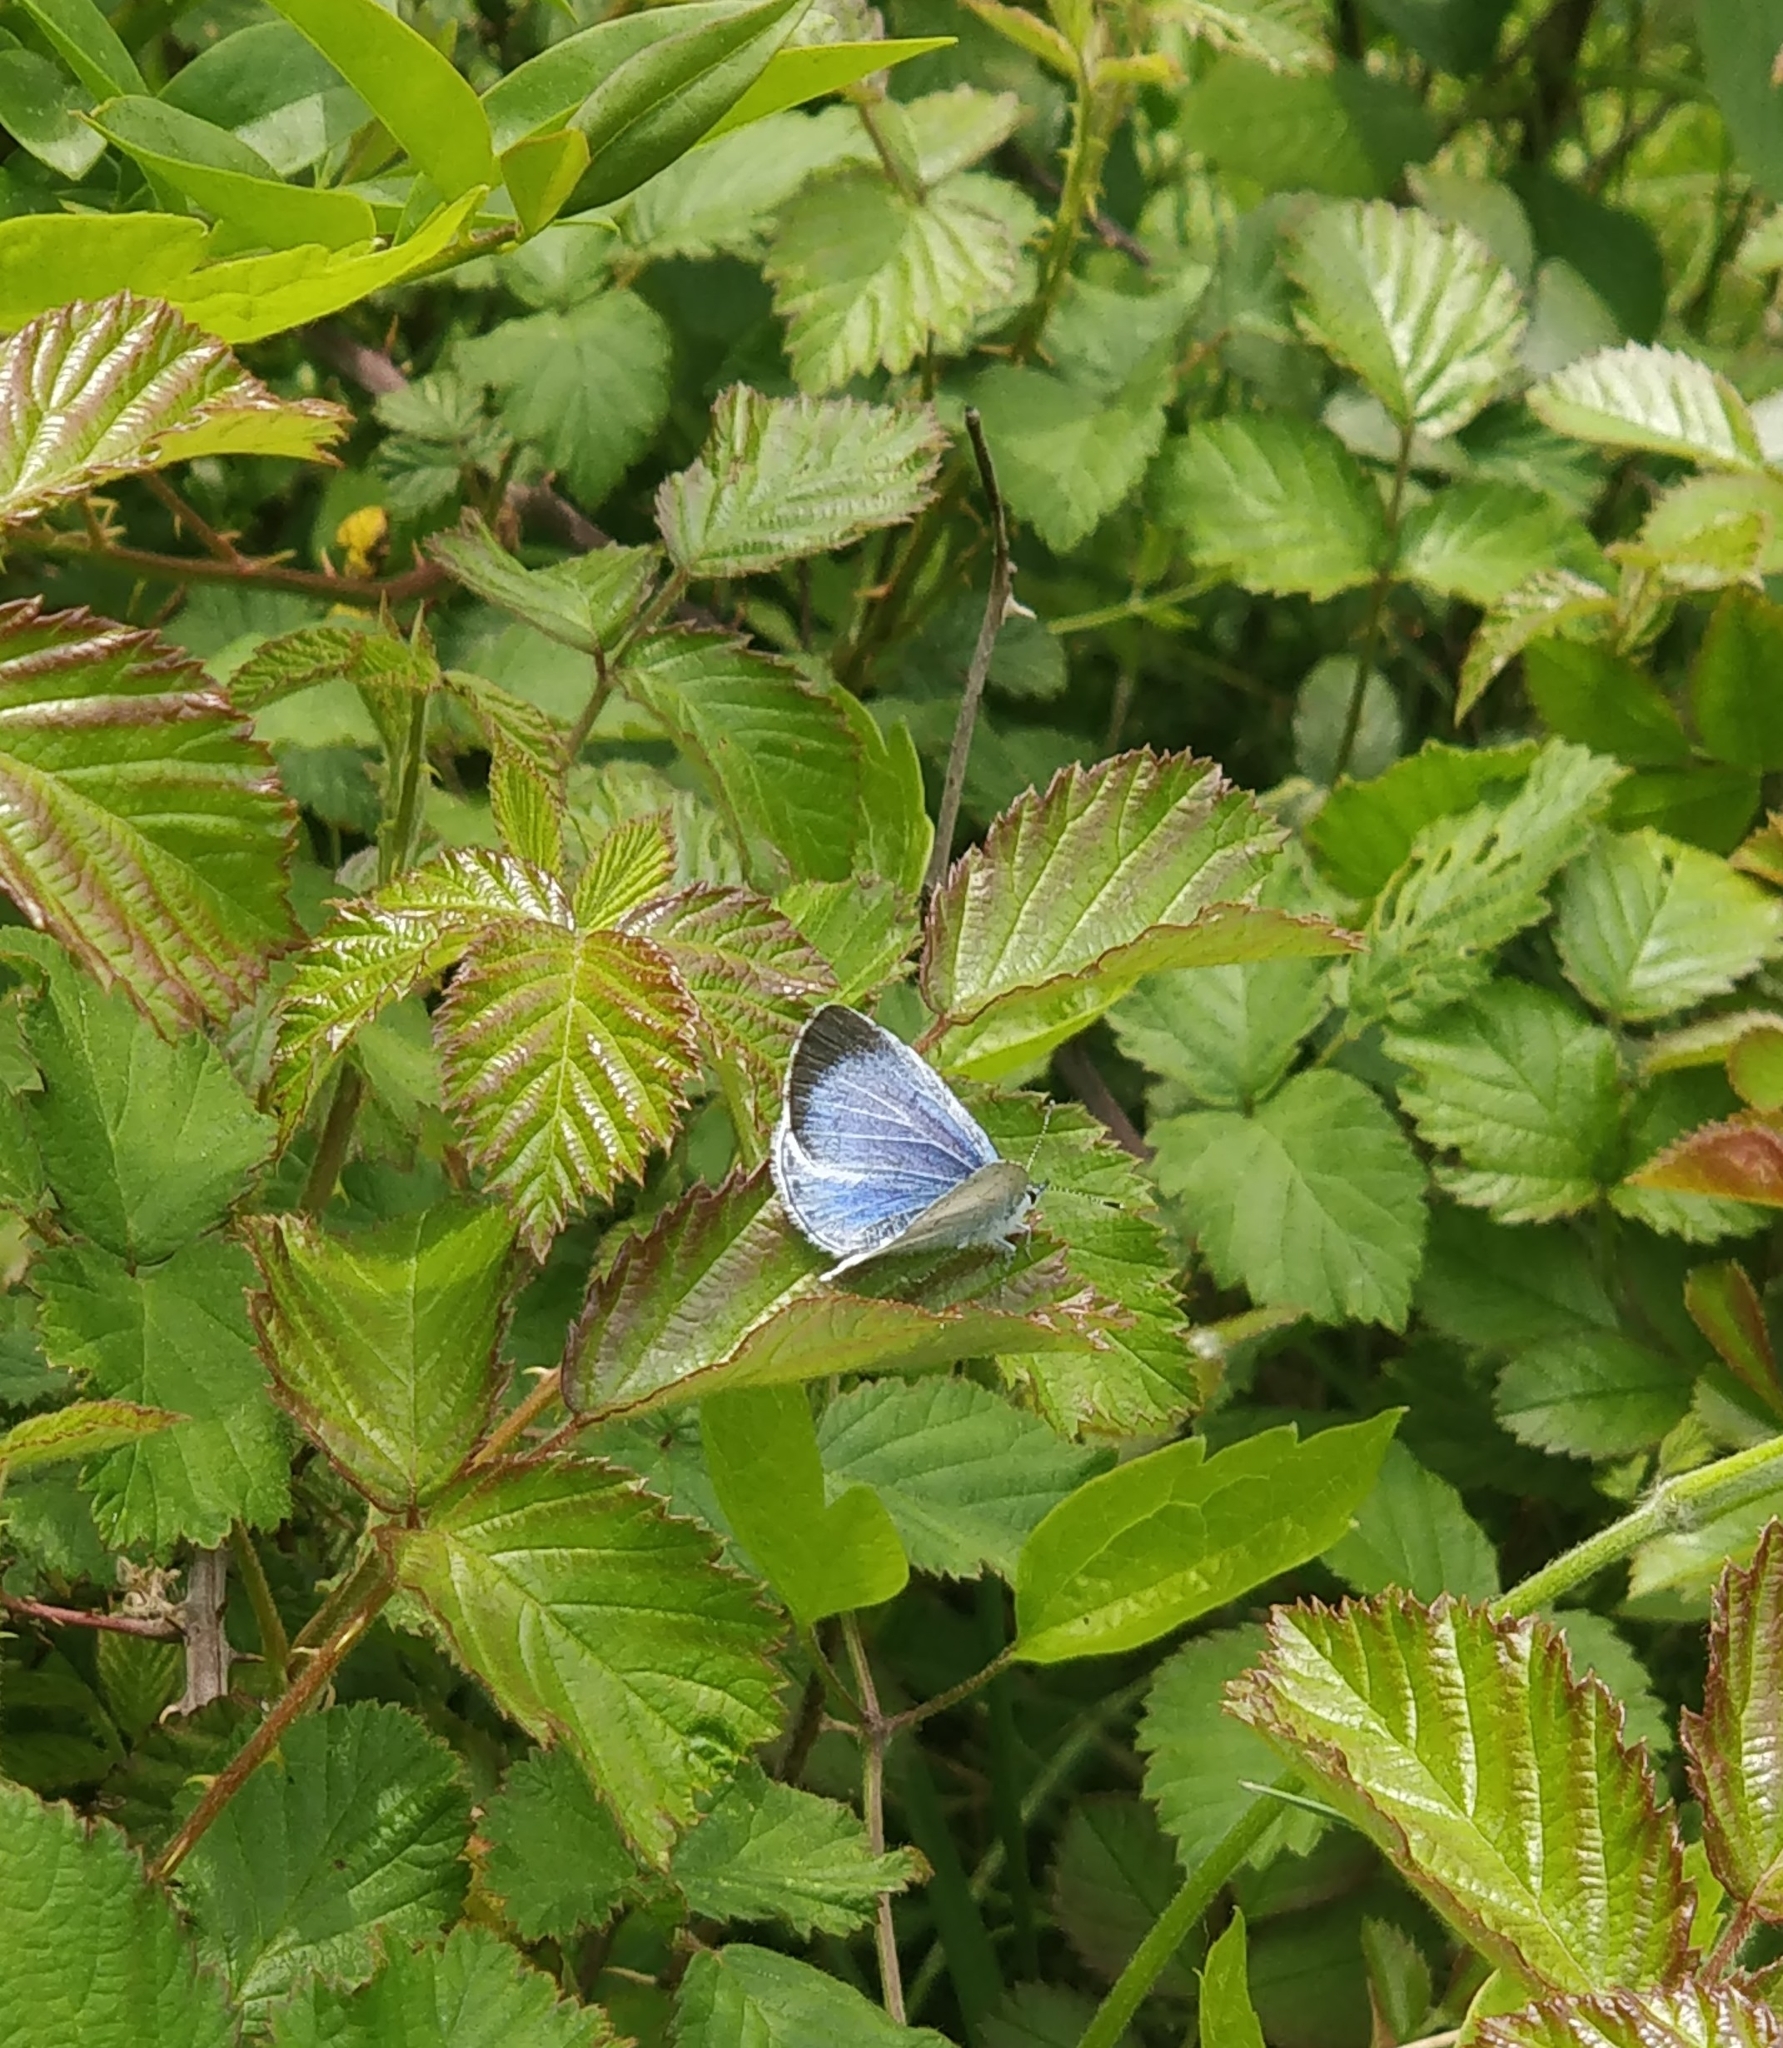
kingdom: Animalia
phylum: Arthropoda
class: Insecta
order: Lepidoptera
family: Lycaenidae
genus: Celastrina
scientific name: Celastrina argiolus
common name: Holly blue
